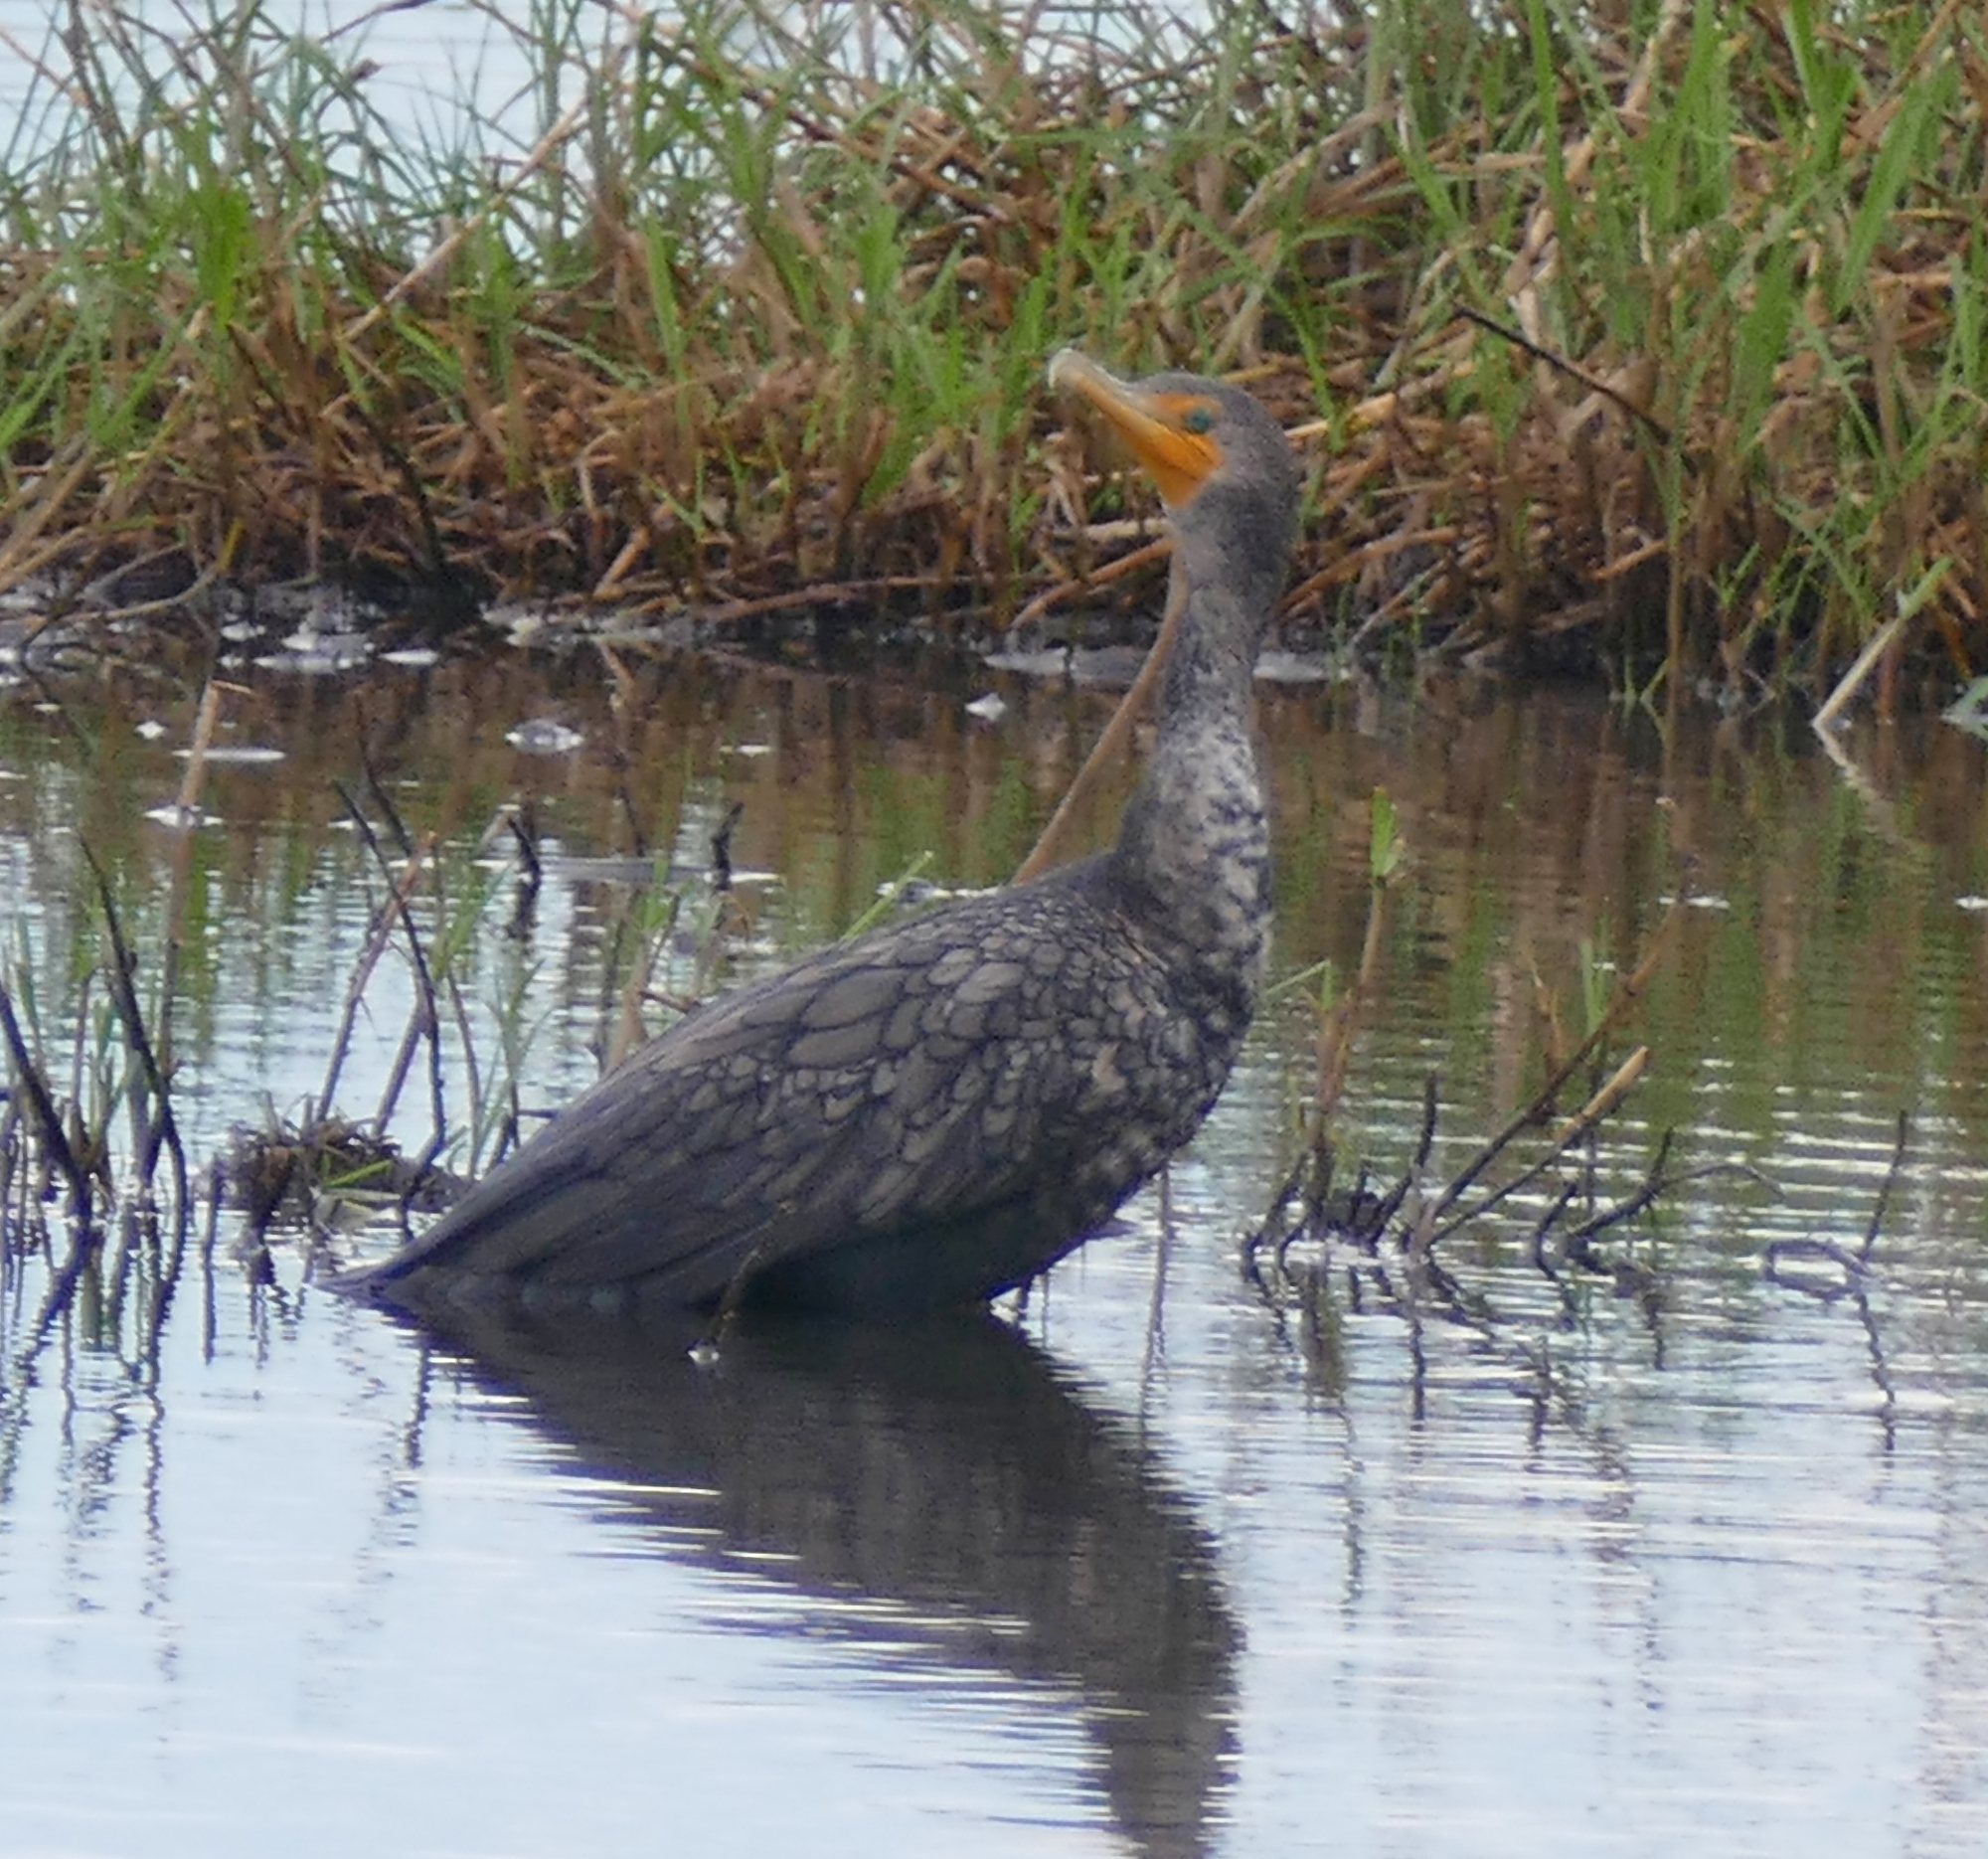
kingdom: Animalia
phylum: Chordata
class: Aves
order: Suliformes
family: Phalacrocoracidae
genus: Phalacrocorax
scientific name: Phalacrocorax auritus
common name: Double-crested cormorant
